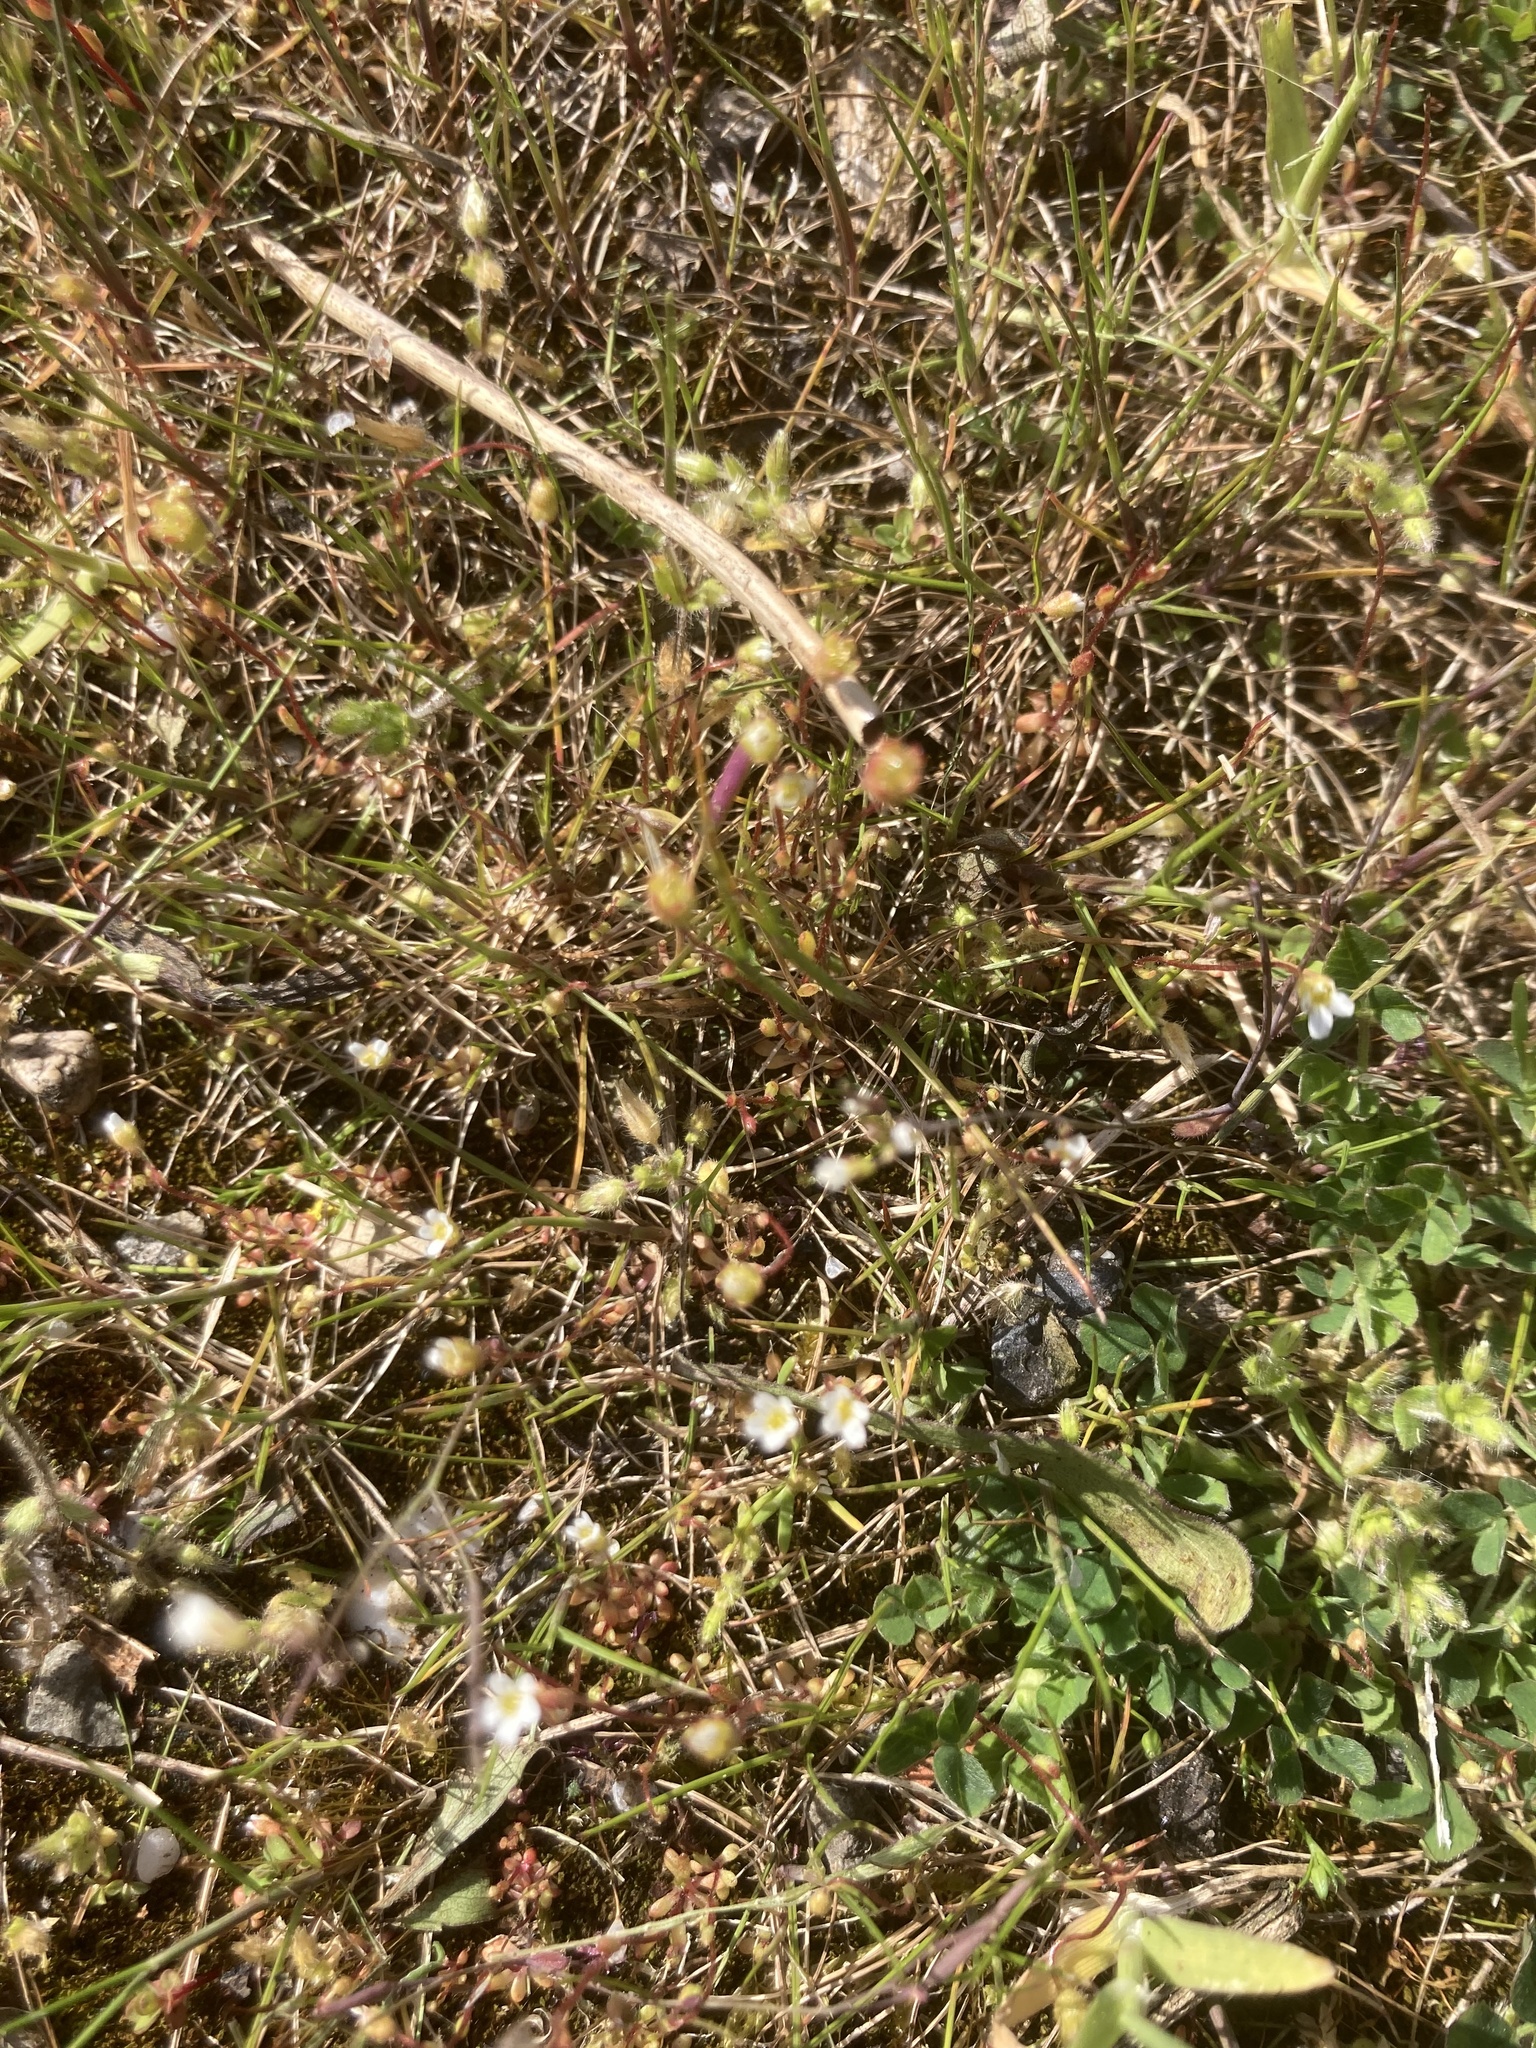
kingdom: Plantae
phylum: Tracheophyta
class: Magnoliopsida
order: Saxifragales
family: Saxifragaceae
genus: Saxifraga
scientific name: Saxifraga tridactylites
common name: Rue-leaved saxifrage
